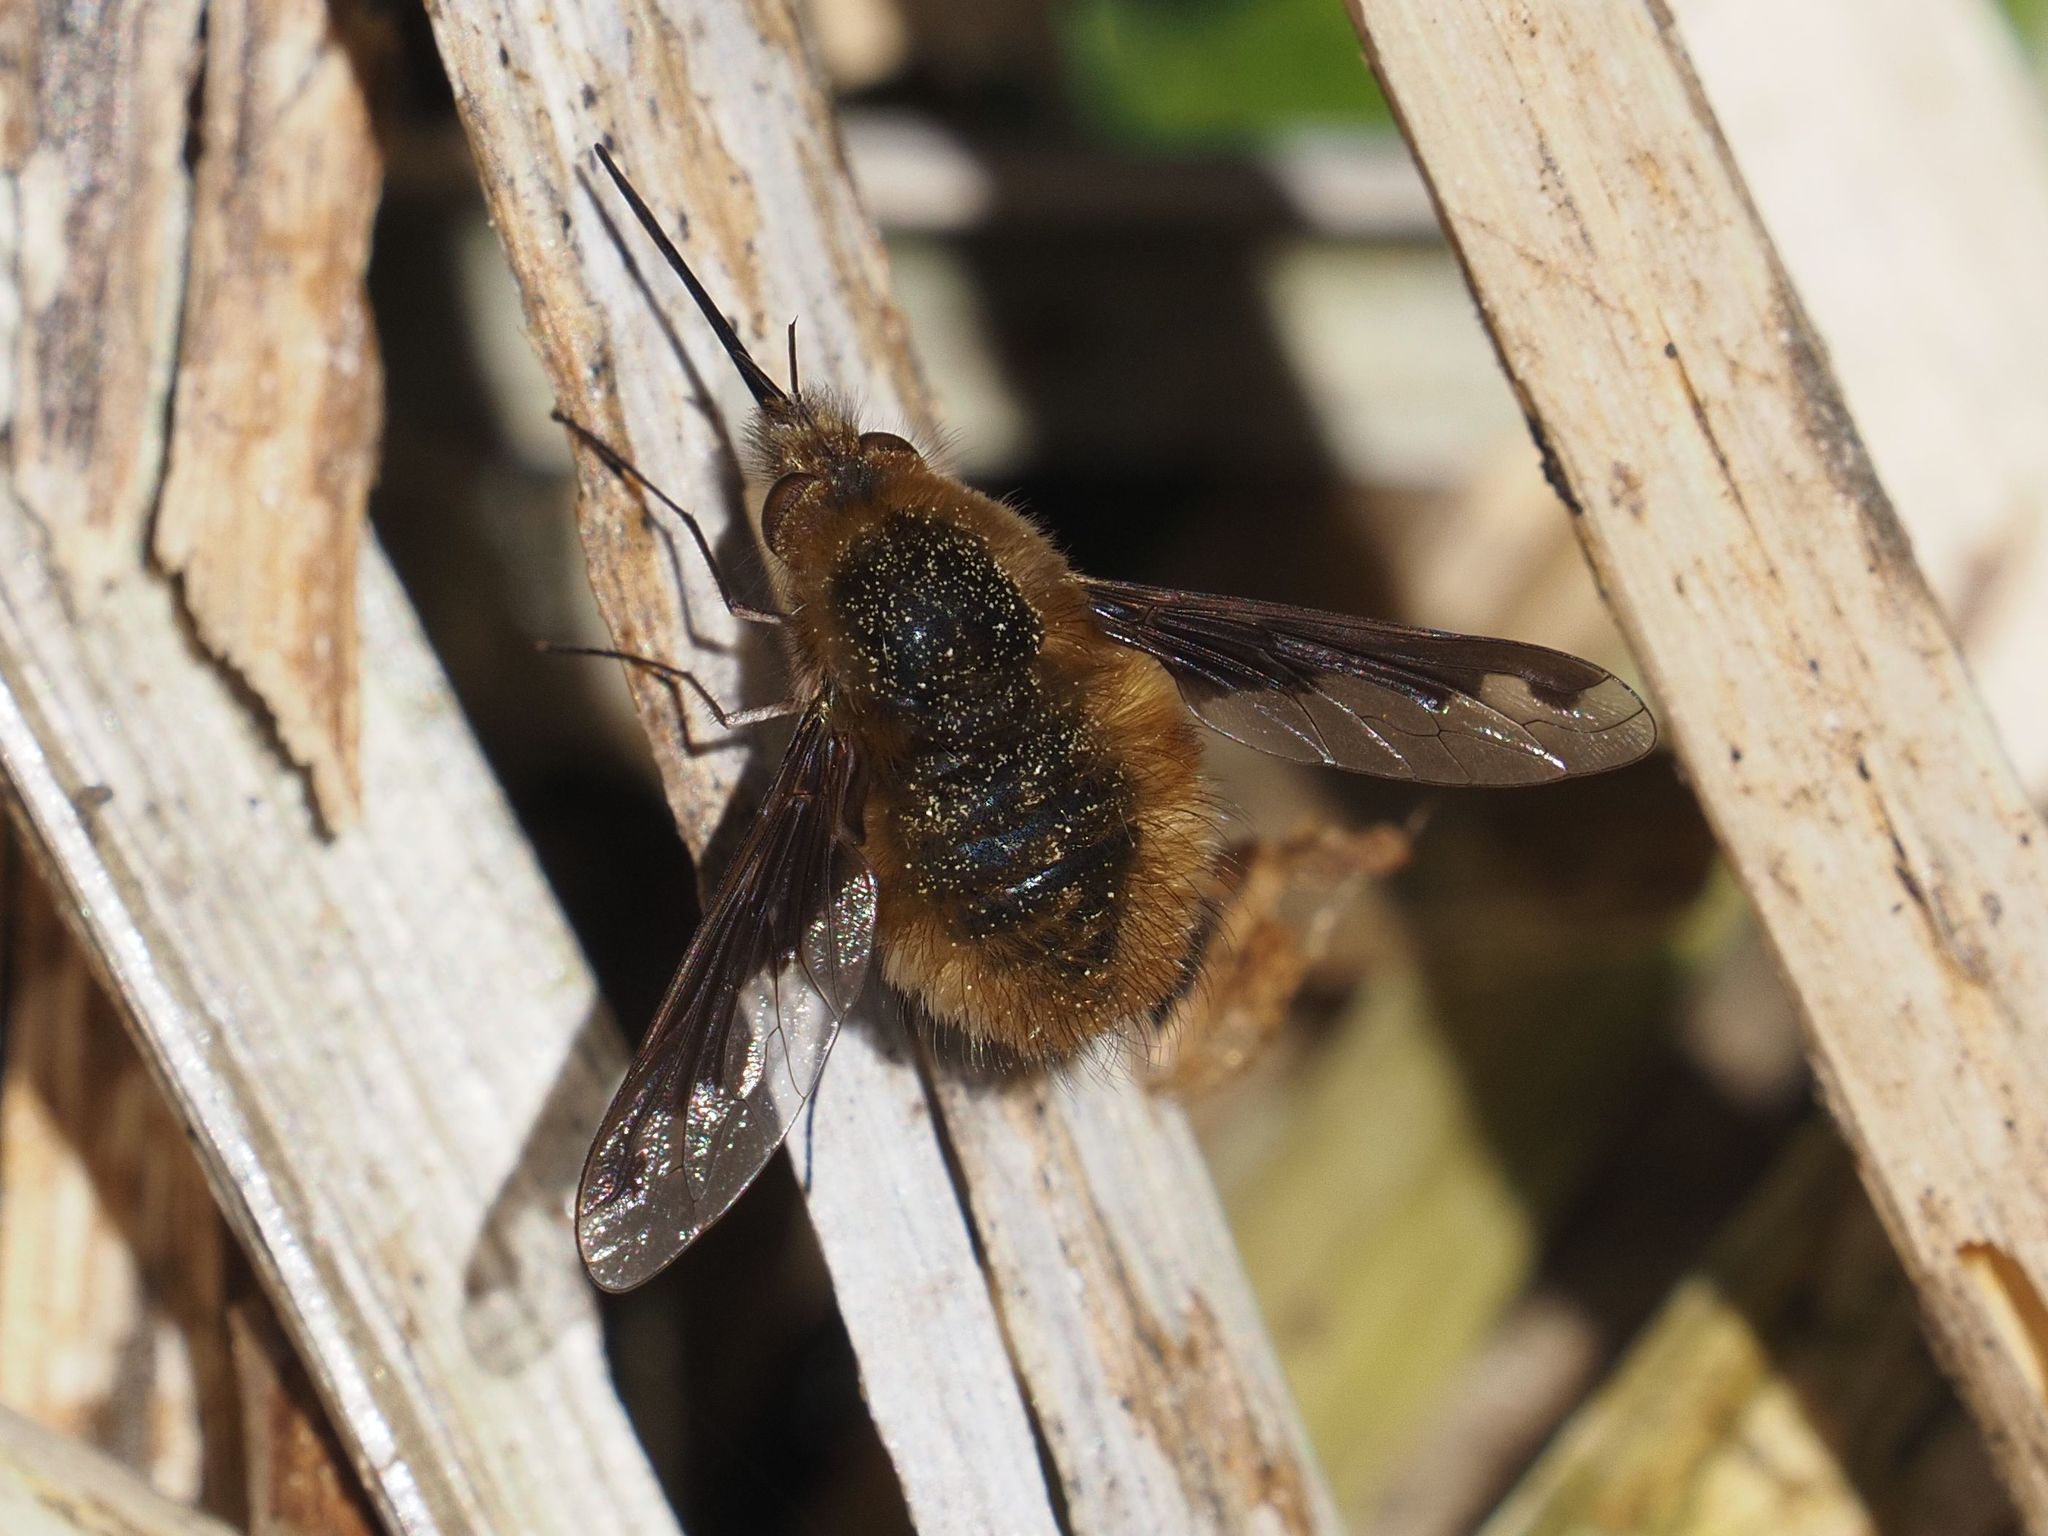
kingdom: Animalia
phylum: Arthropoda
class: Insecta
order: Diptera
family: Bombyliidae
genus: Bombylius
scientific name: Bombylius major
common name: Bee fly
